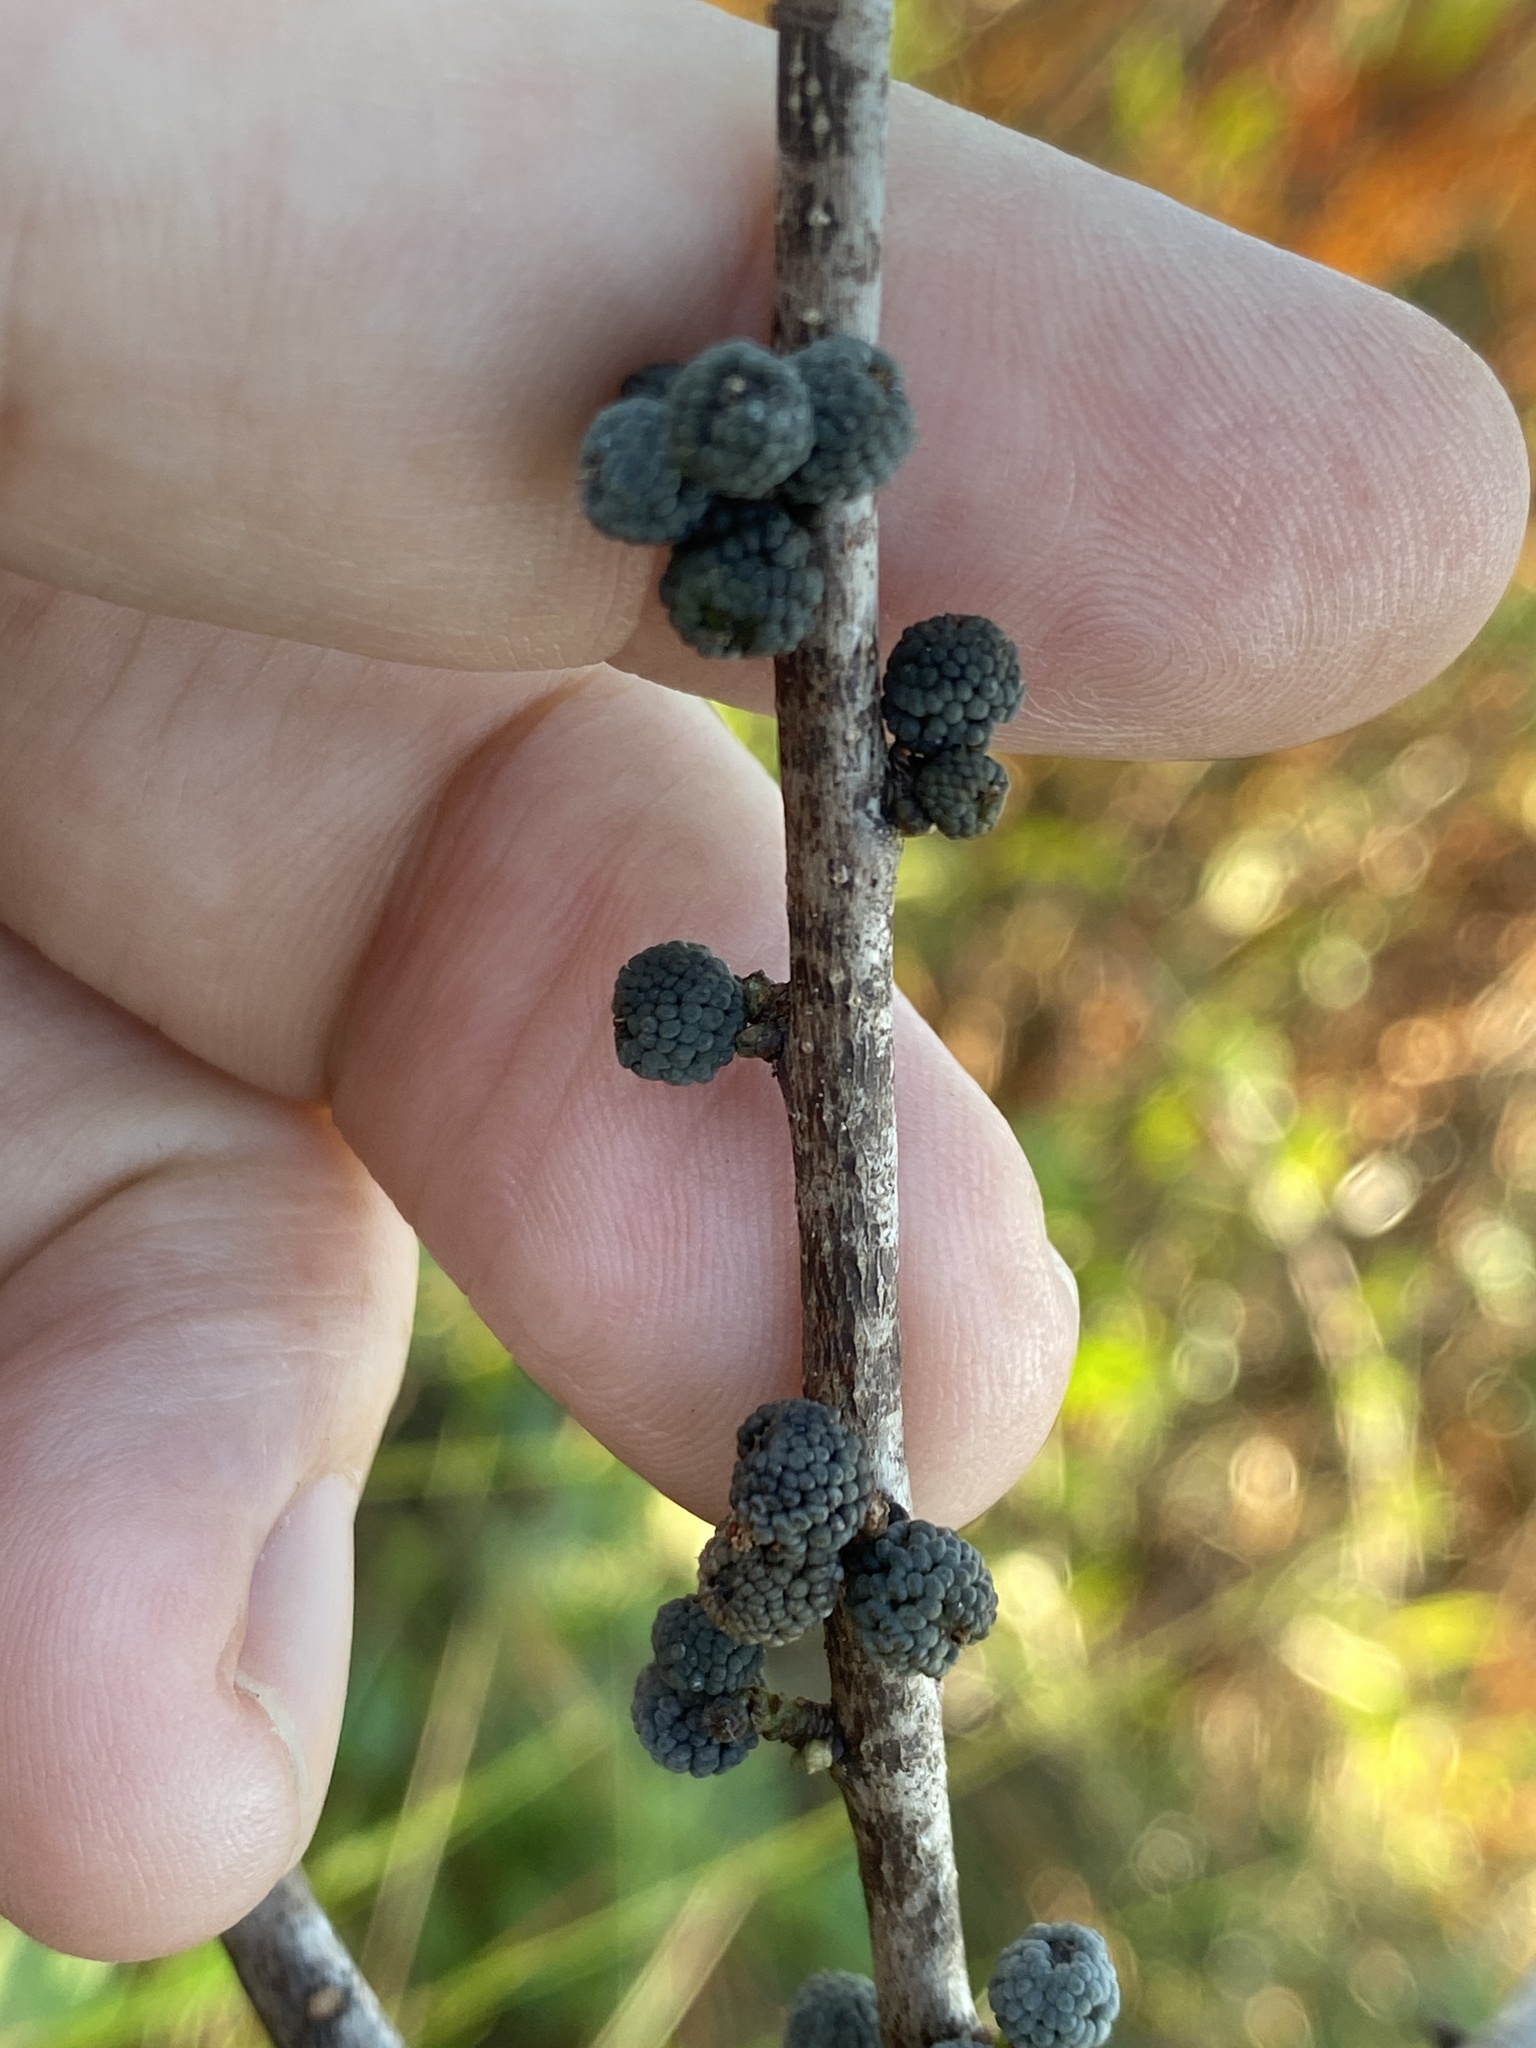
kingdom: Plantae
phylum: Tracheophyta
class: Magnoliopsida
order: Fagales
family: Myricaceae
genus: Morella
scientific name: Morella caroliniensis
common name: Evergreen bayberry
